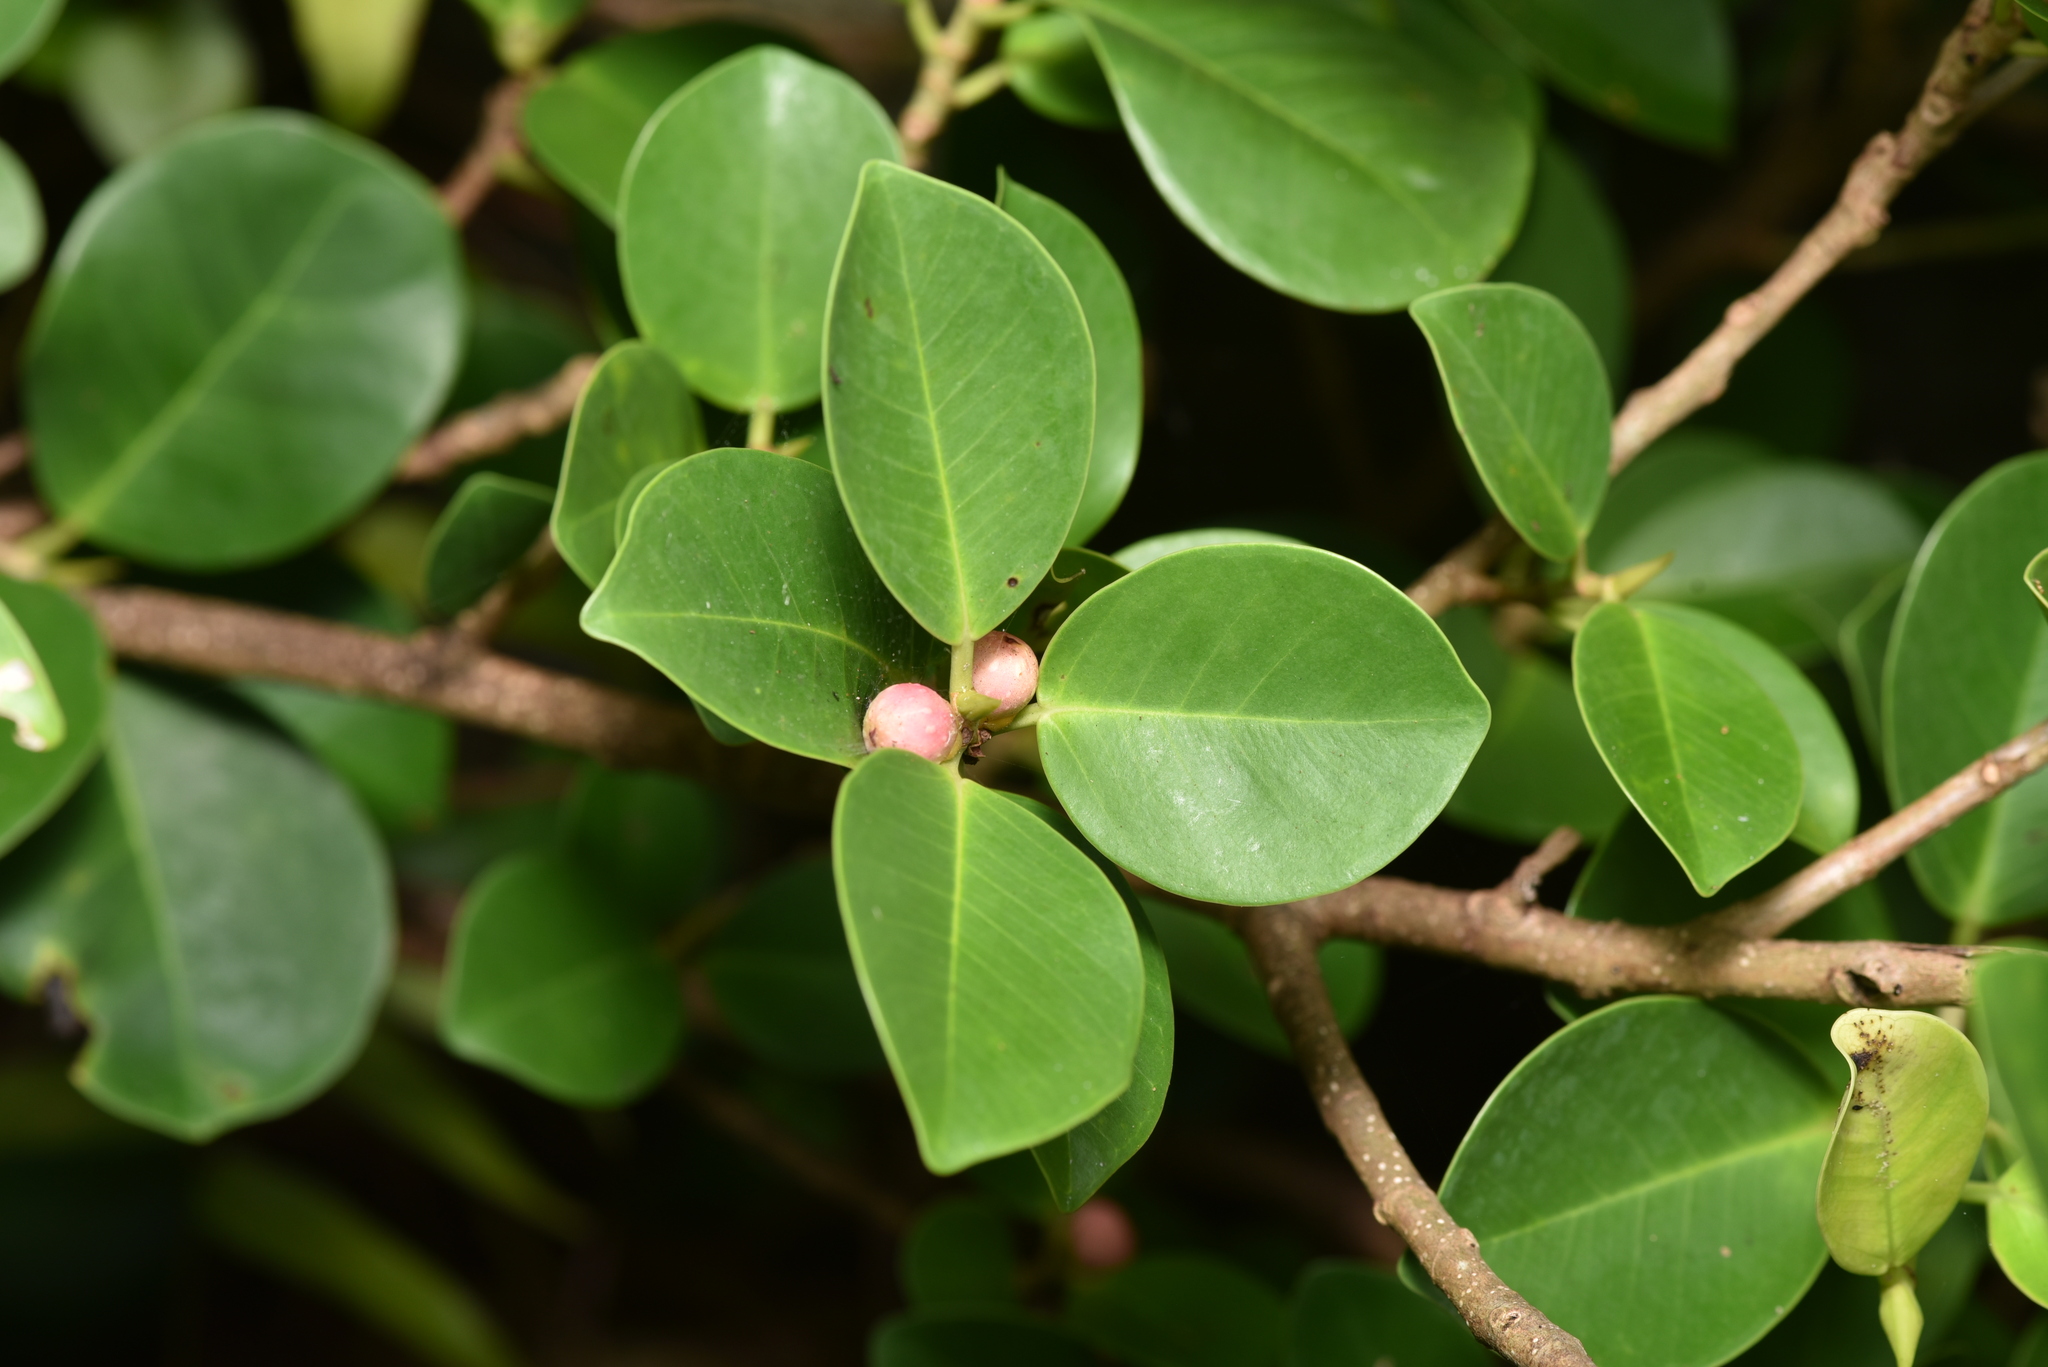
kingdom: Plantae
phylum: Tracheophyta
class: Magnoliopsida
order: Rosales
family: Moraceae
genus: Ficus
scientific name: Ficus microcarpa
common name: Chinese banyan
